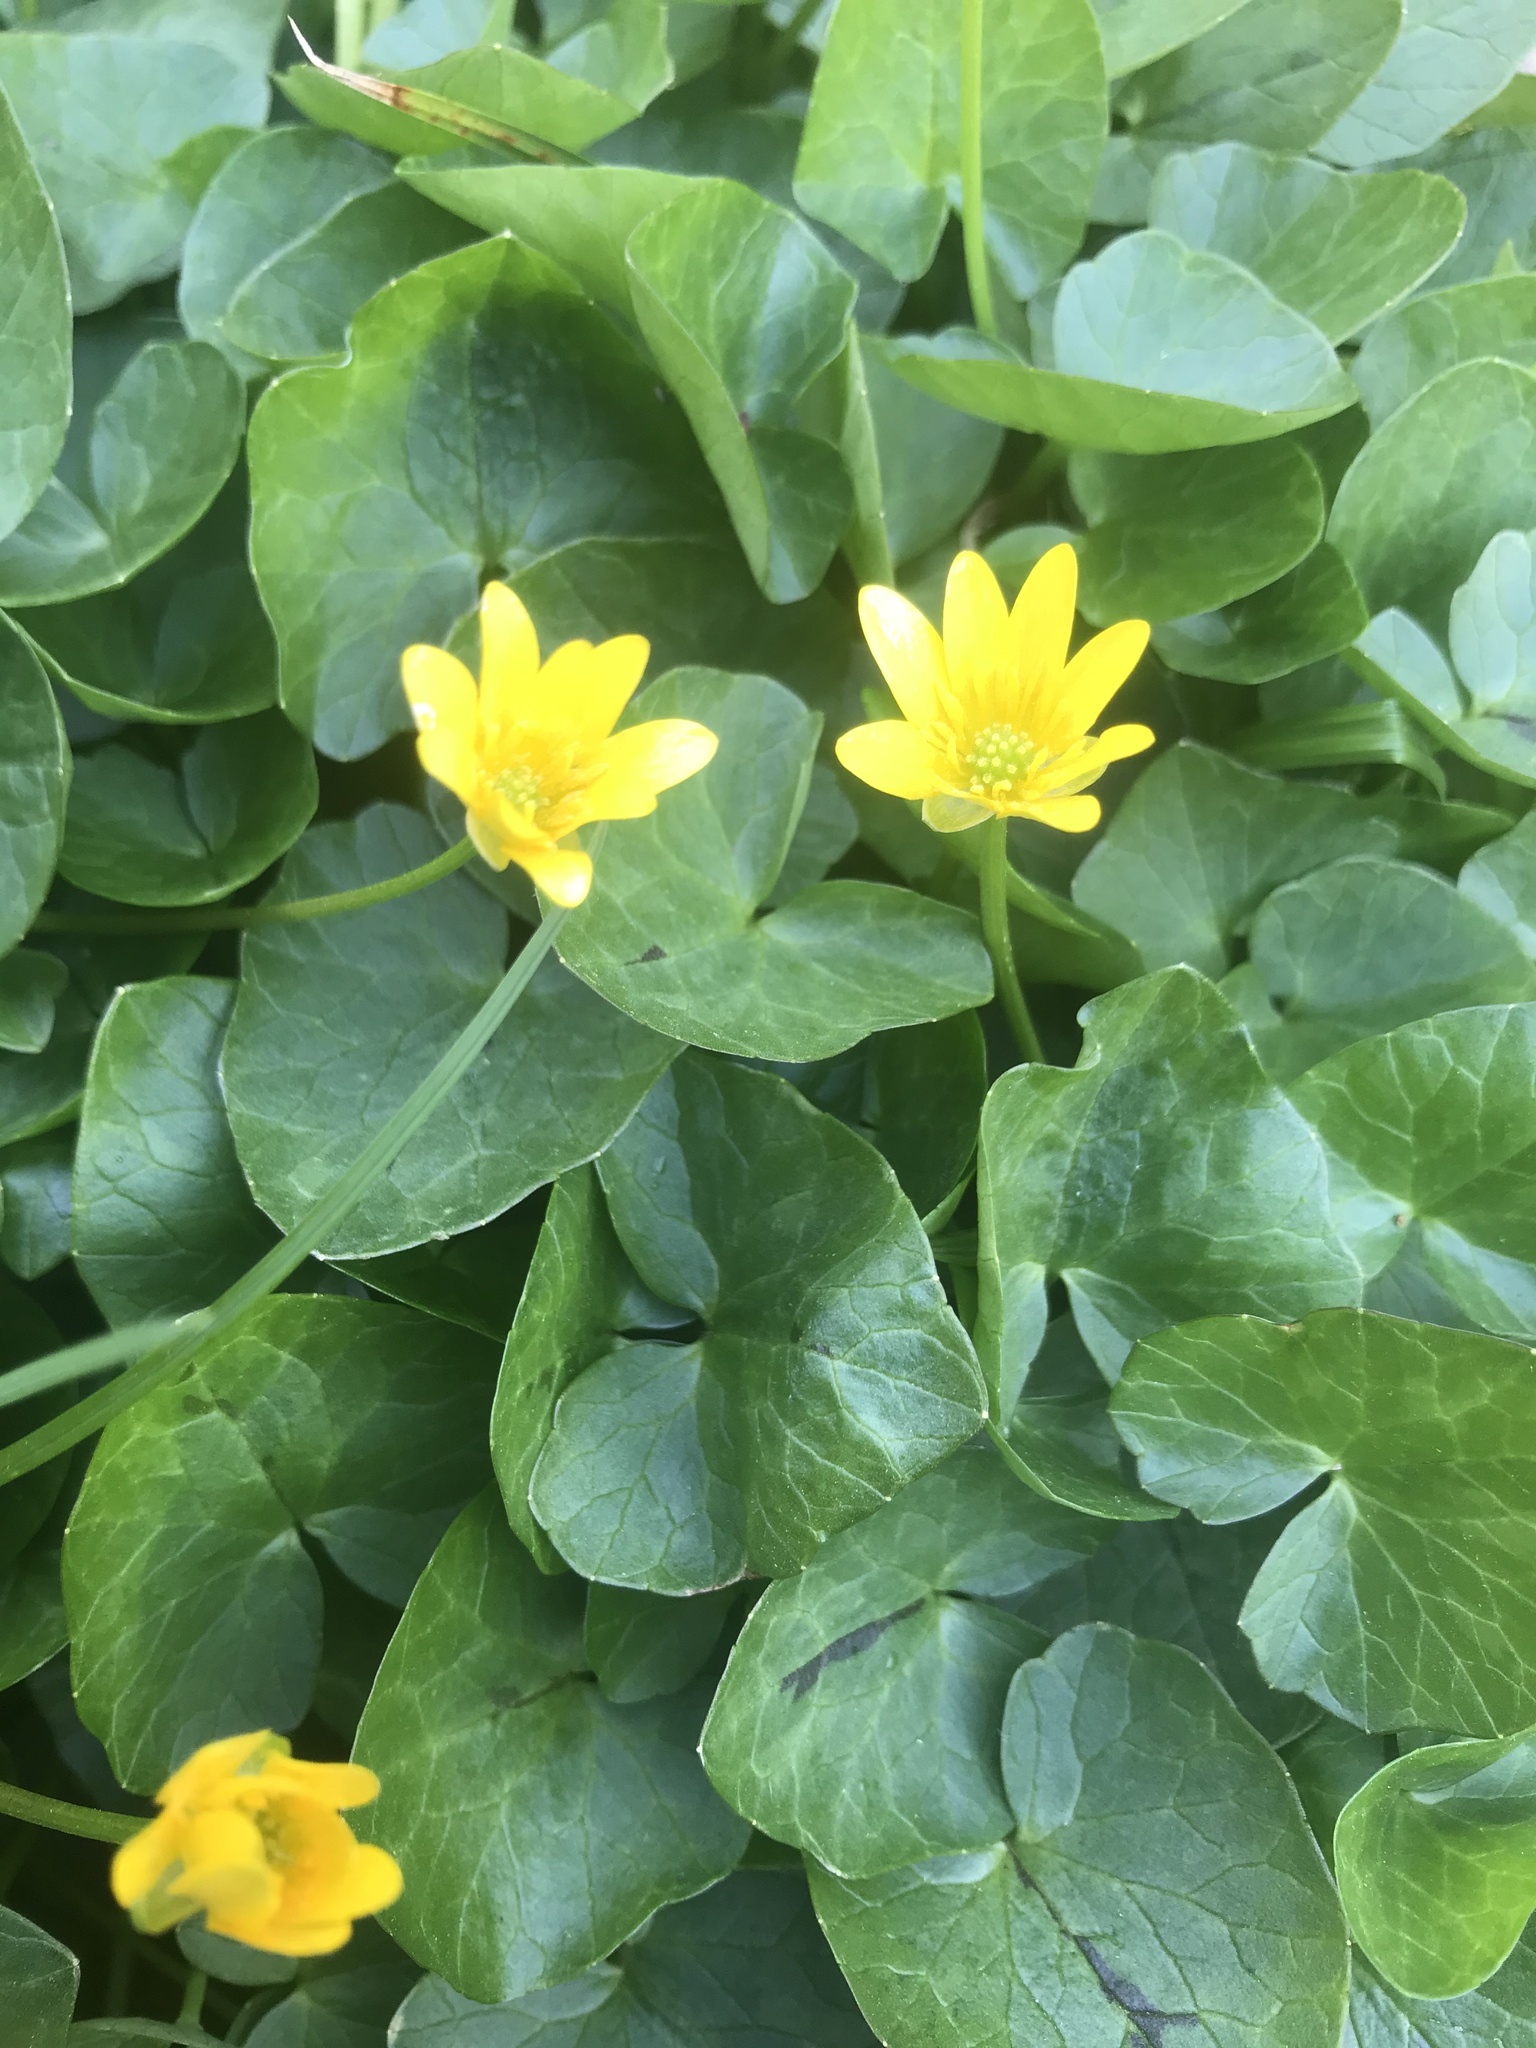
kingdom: Plantae
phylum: Tracheophyta
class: Magnoliopsida
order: Ranunculales
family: Ranunculaceae
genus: Ficaria
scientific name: Ficaria verna
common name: Lesser celandine
